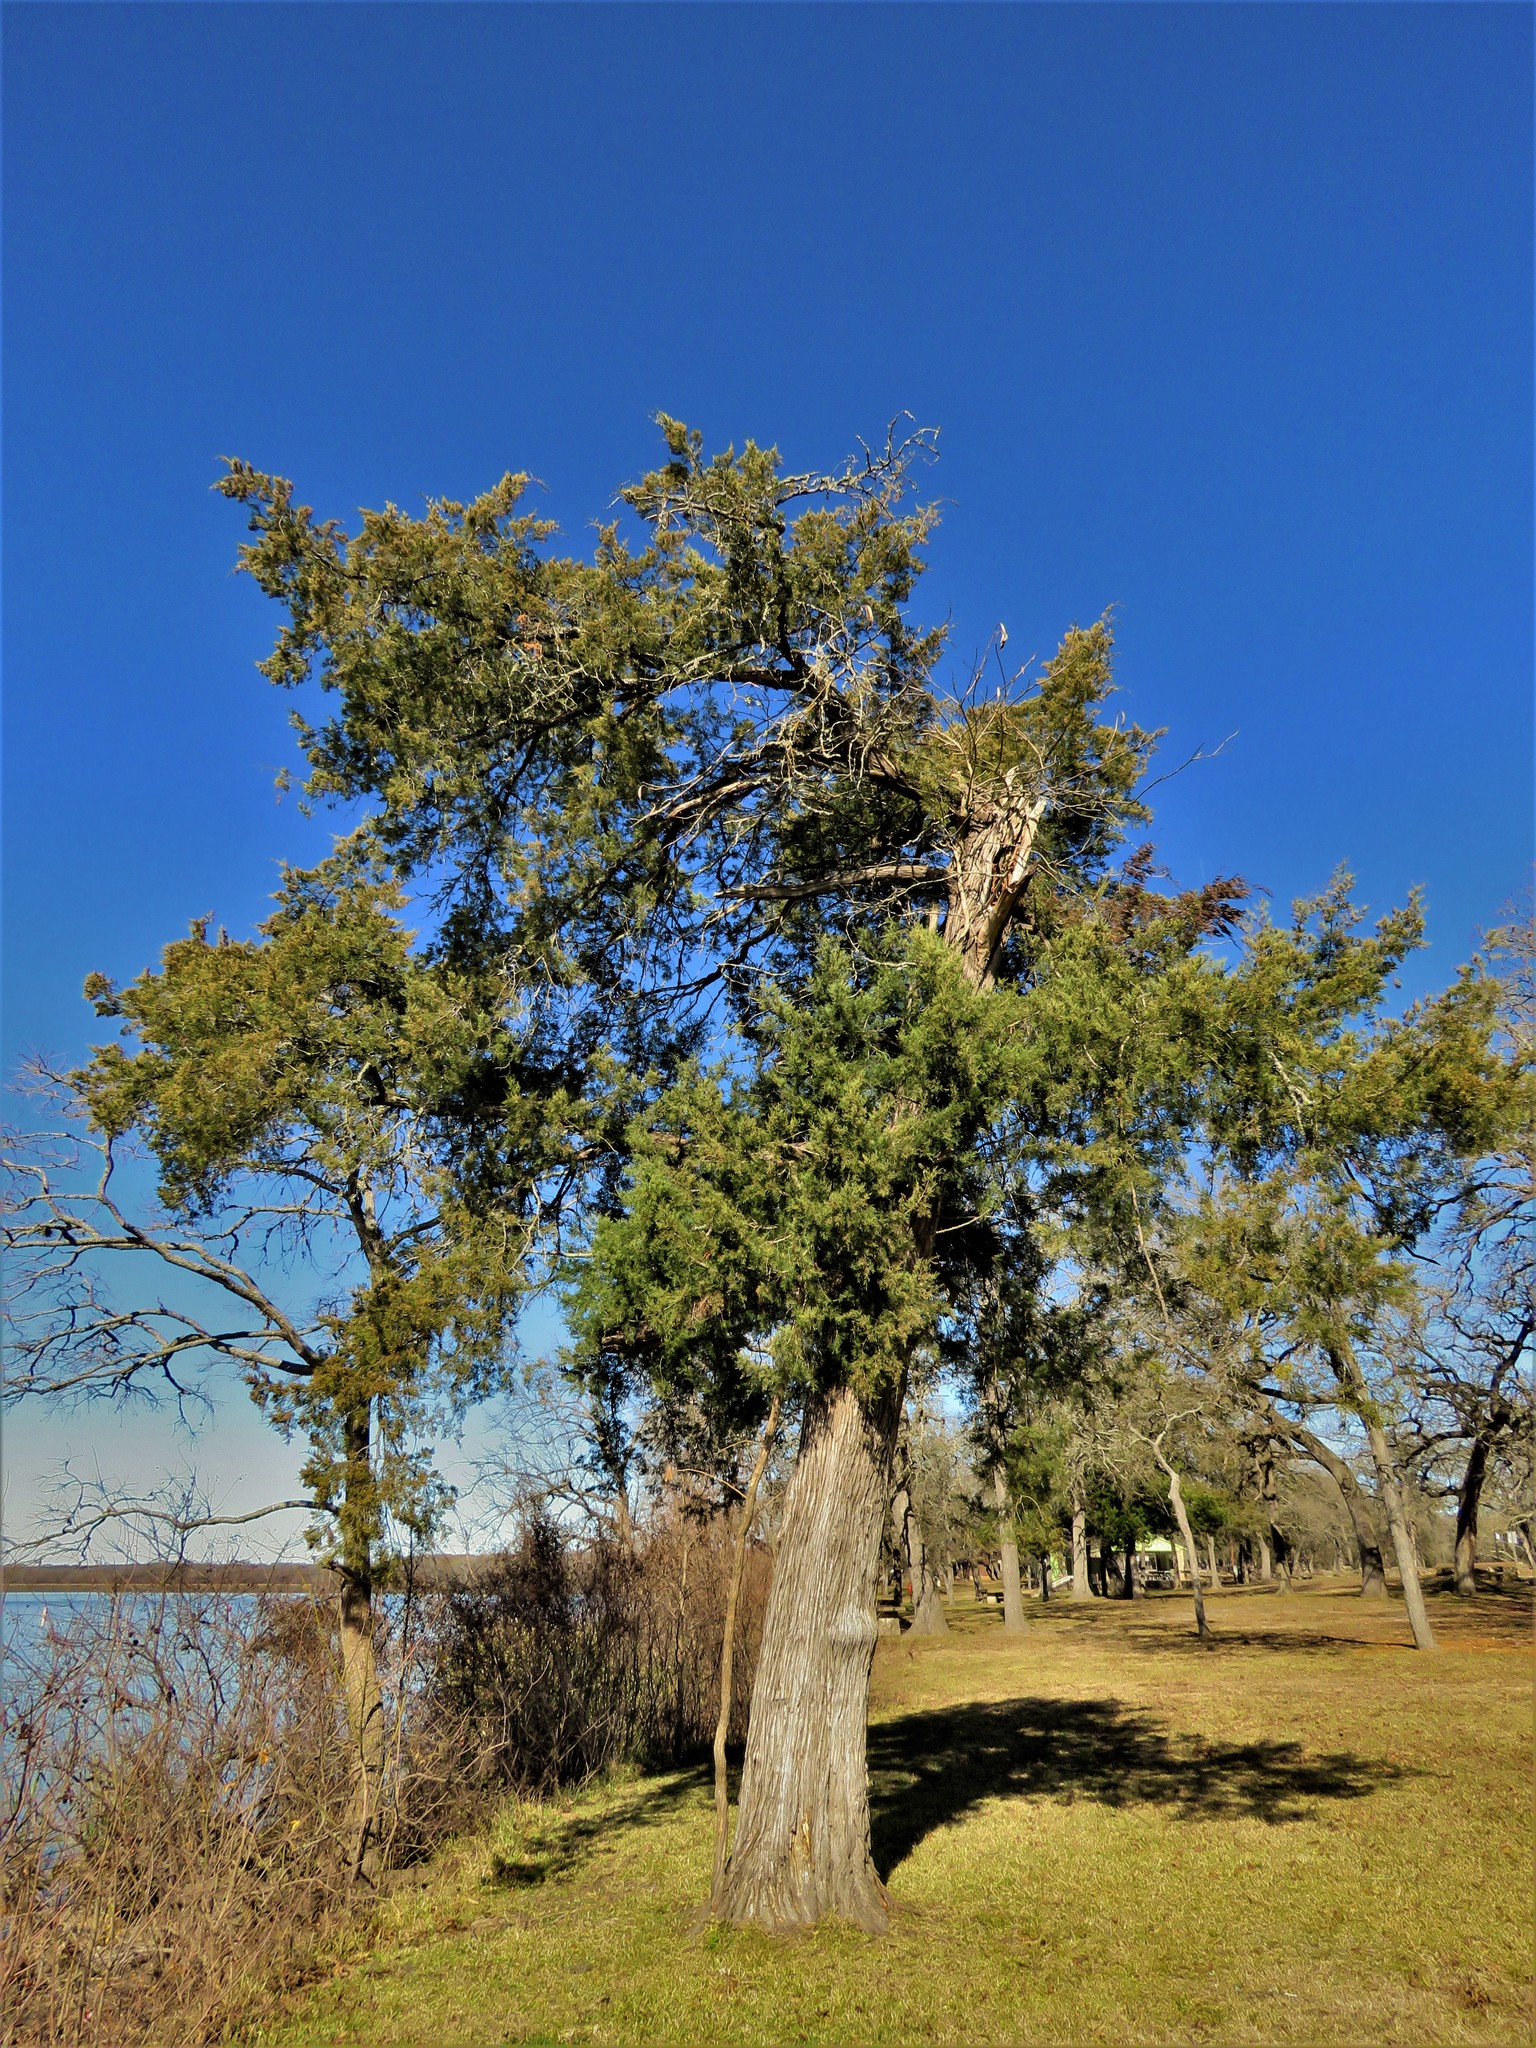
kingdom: Plantae
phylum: Tracheophyta
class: Pinopsida
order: Pinales
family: Cupressaceae
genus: Juniperus
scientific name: Juniperus virginiana
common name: Red juniper
